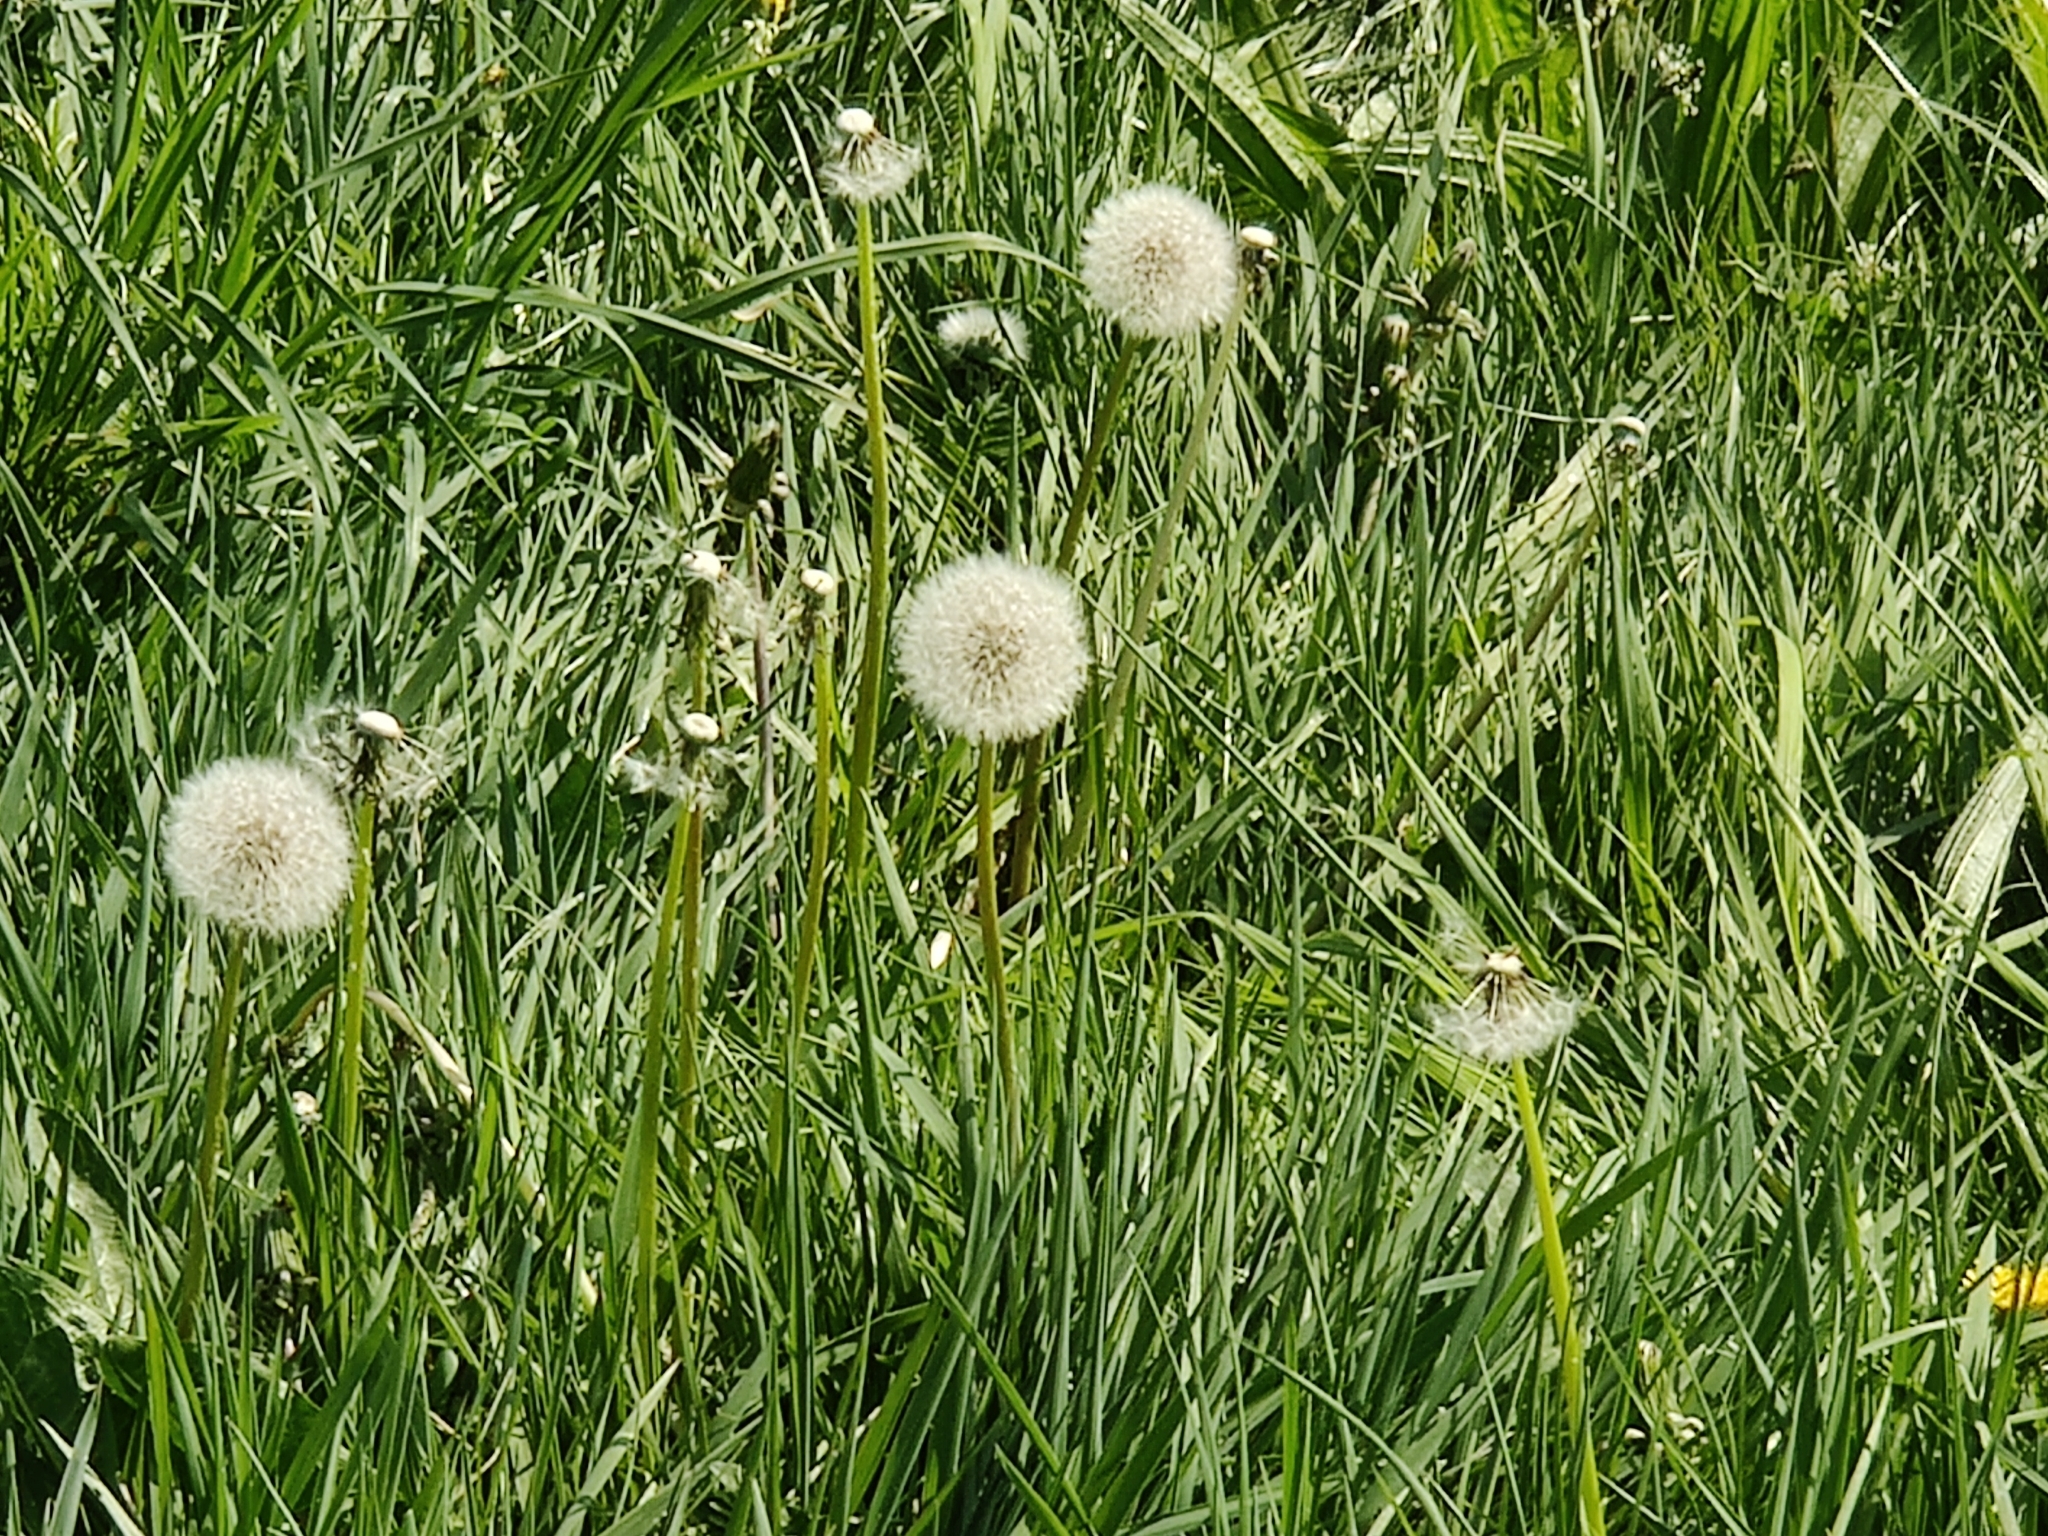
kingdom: Plantae
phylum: Tracheophyta
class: Magnoliopsida
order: Asterales
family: Asteraceae
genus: Taraxacum
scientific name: Taraxacum officinale
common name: Common dandelion
